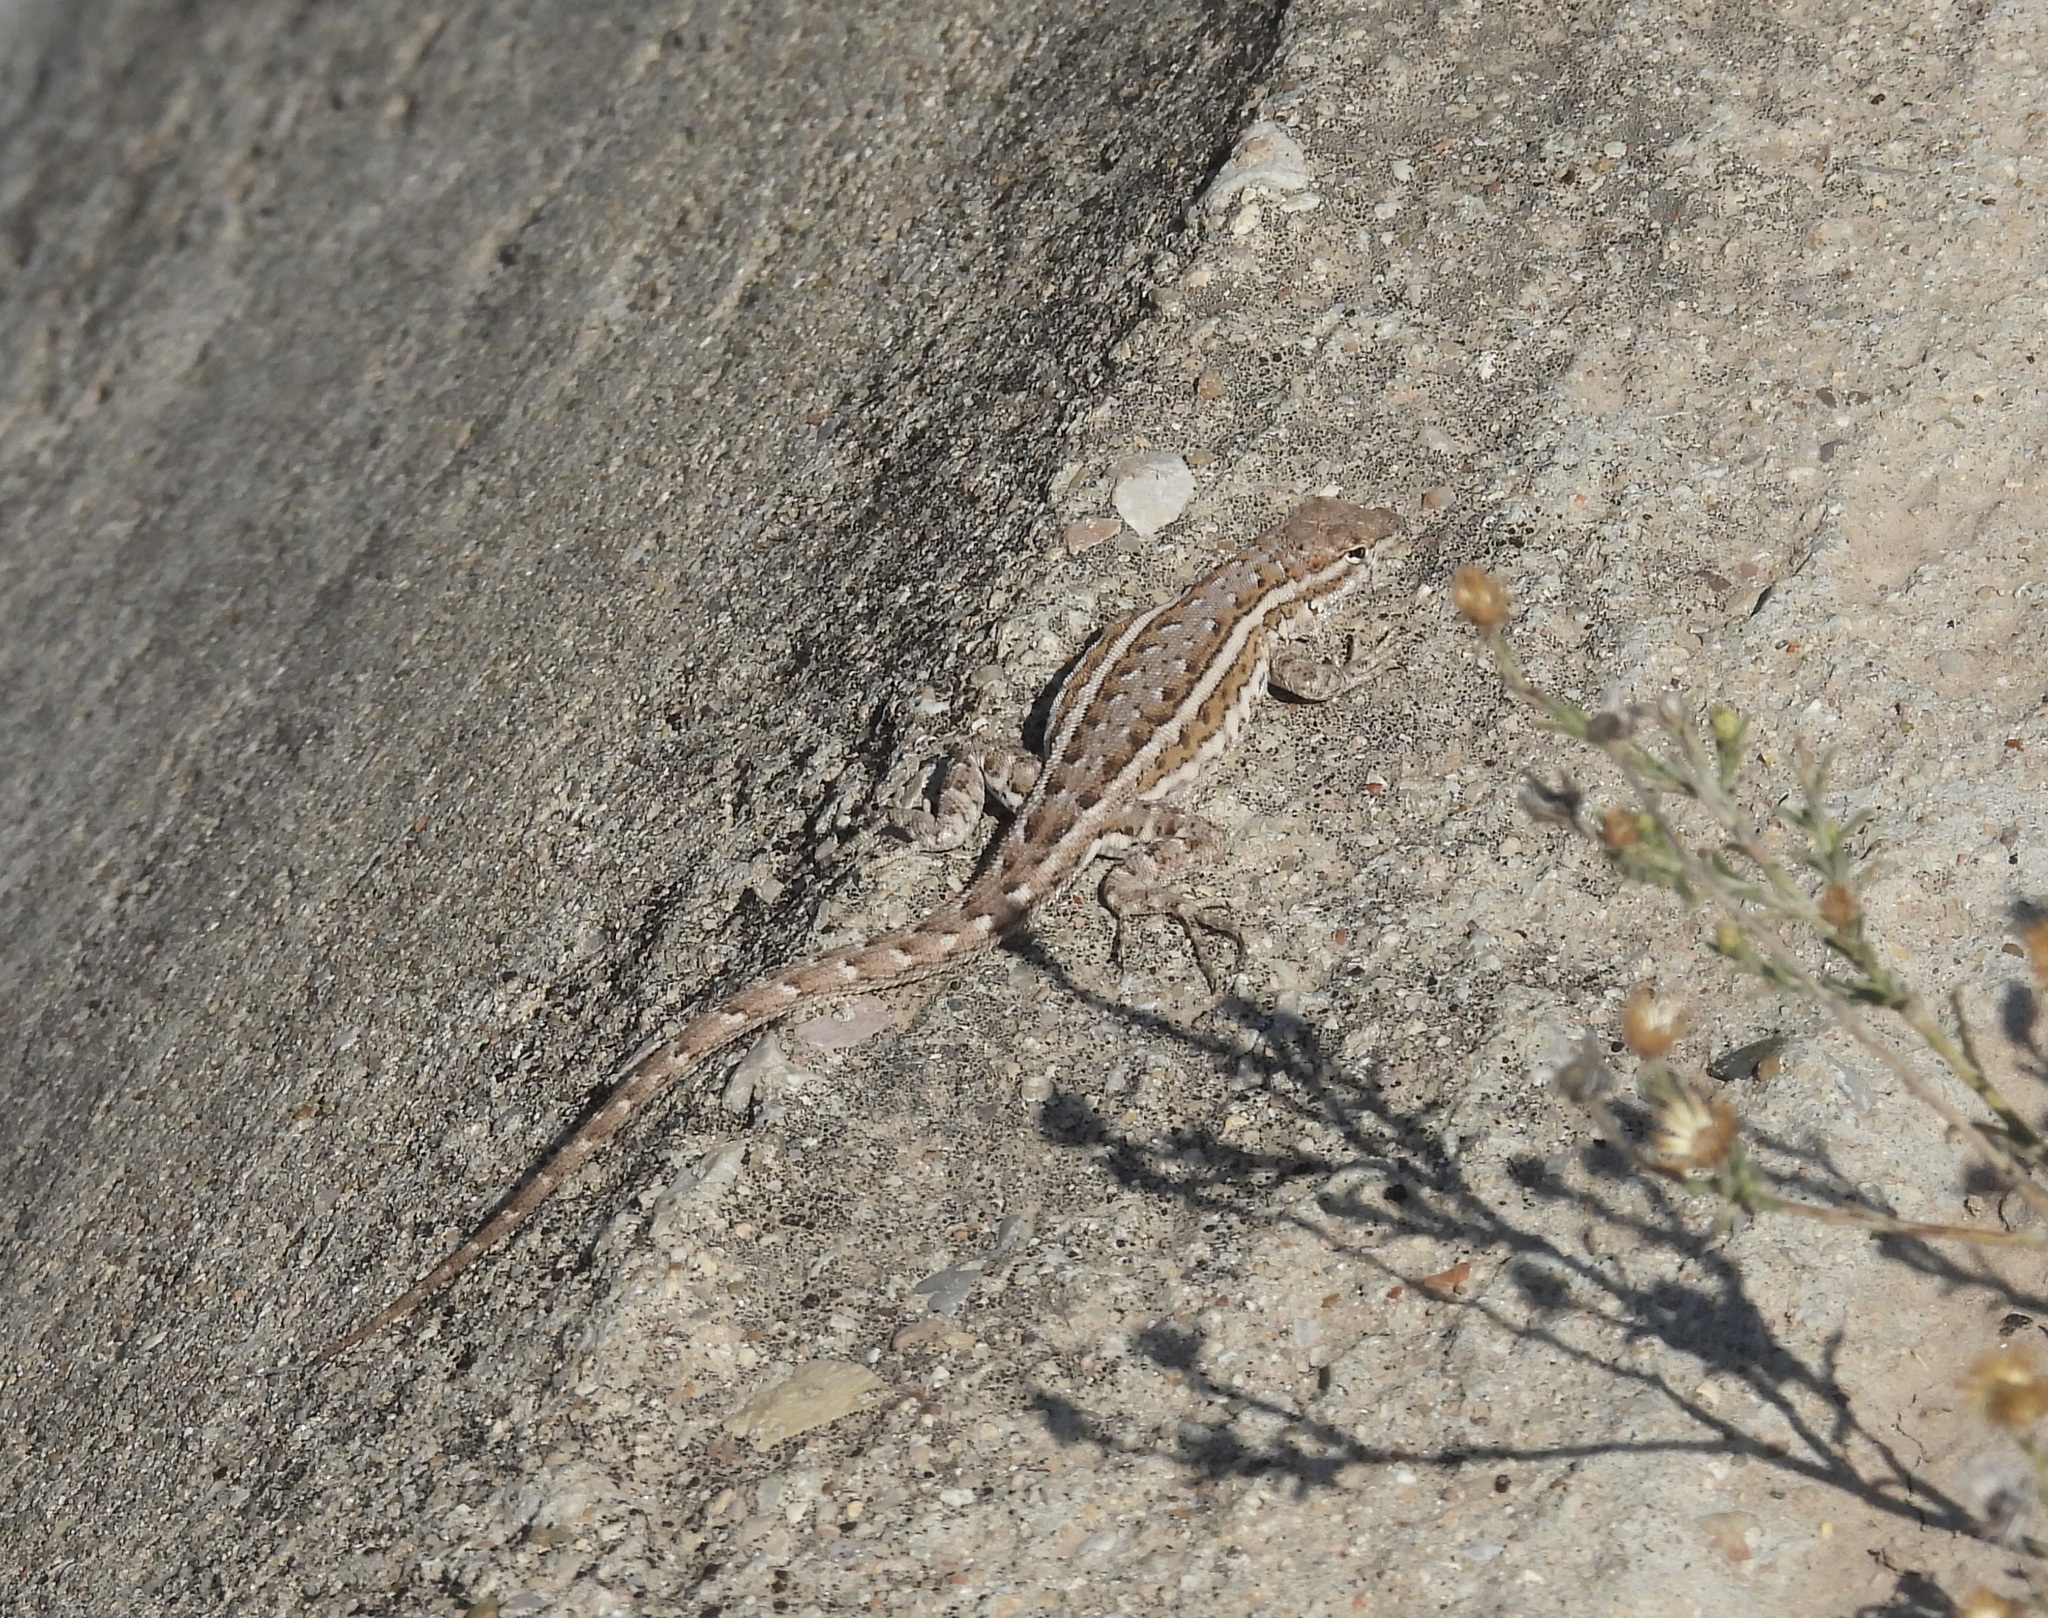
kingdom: Animalia
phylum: Chordata
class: Squamata
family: Phrynosomatidae
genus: Uta
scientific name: Uta stansburiana
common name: Side-blotched lizard
